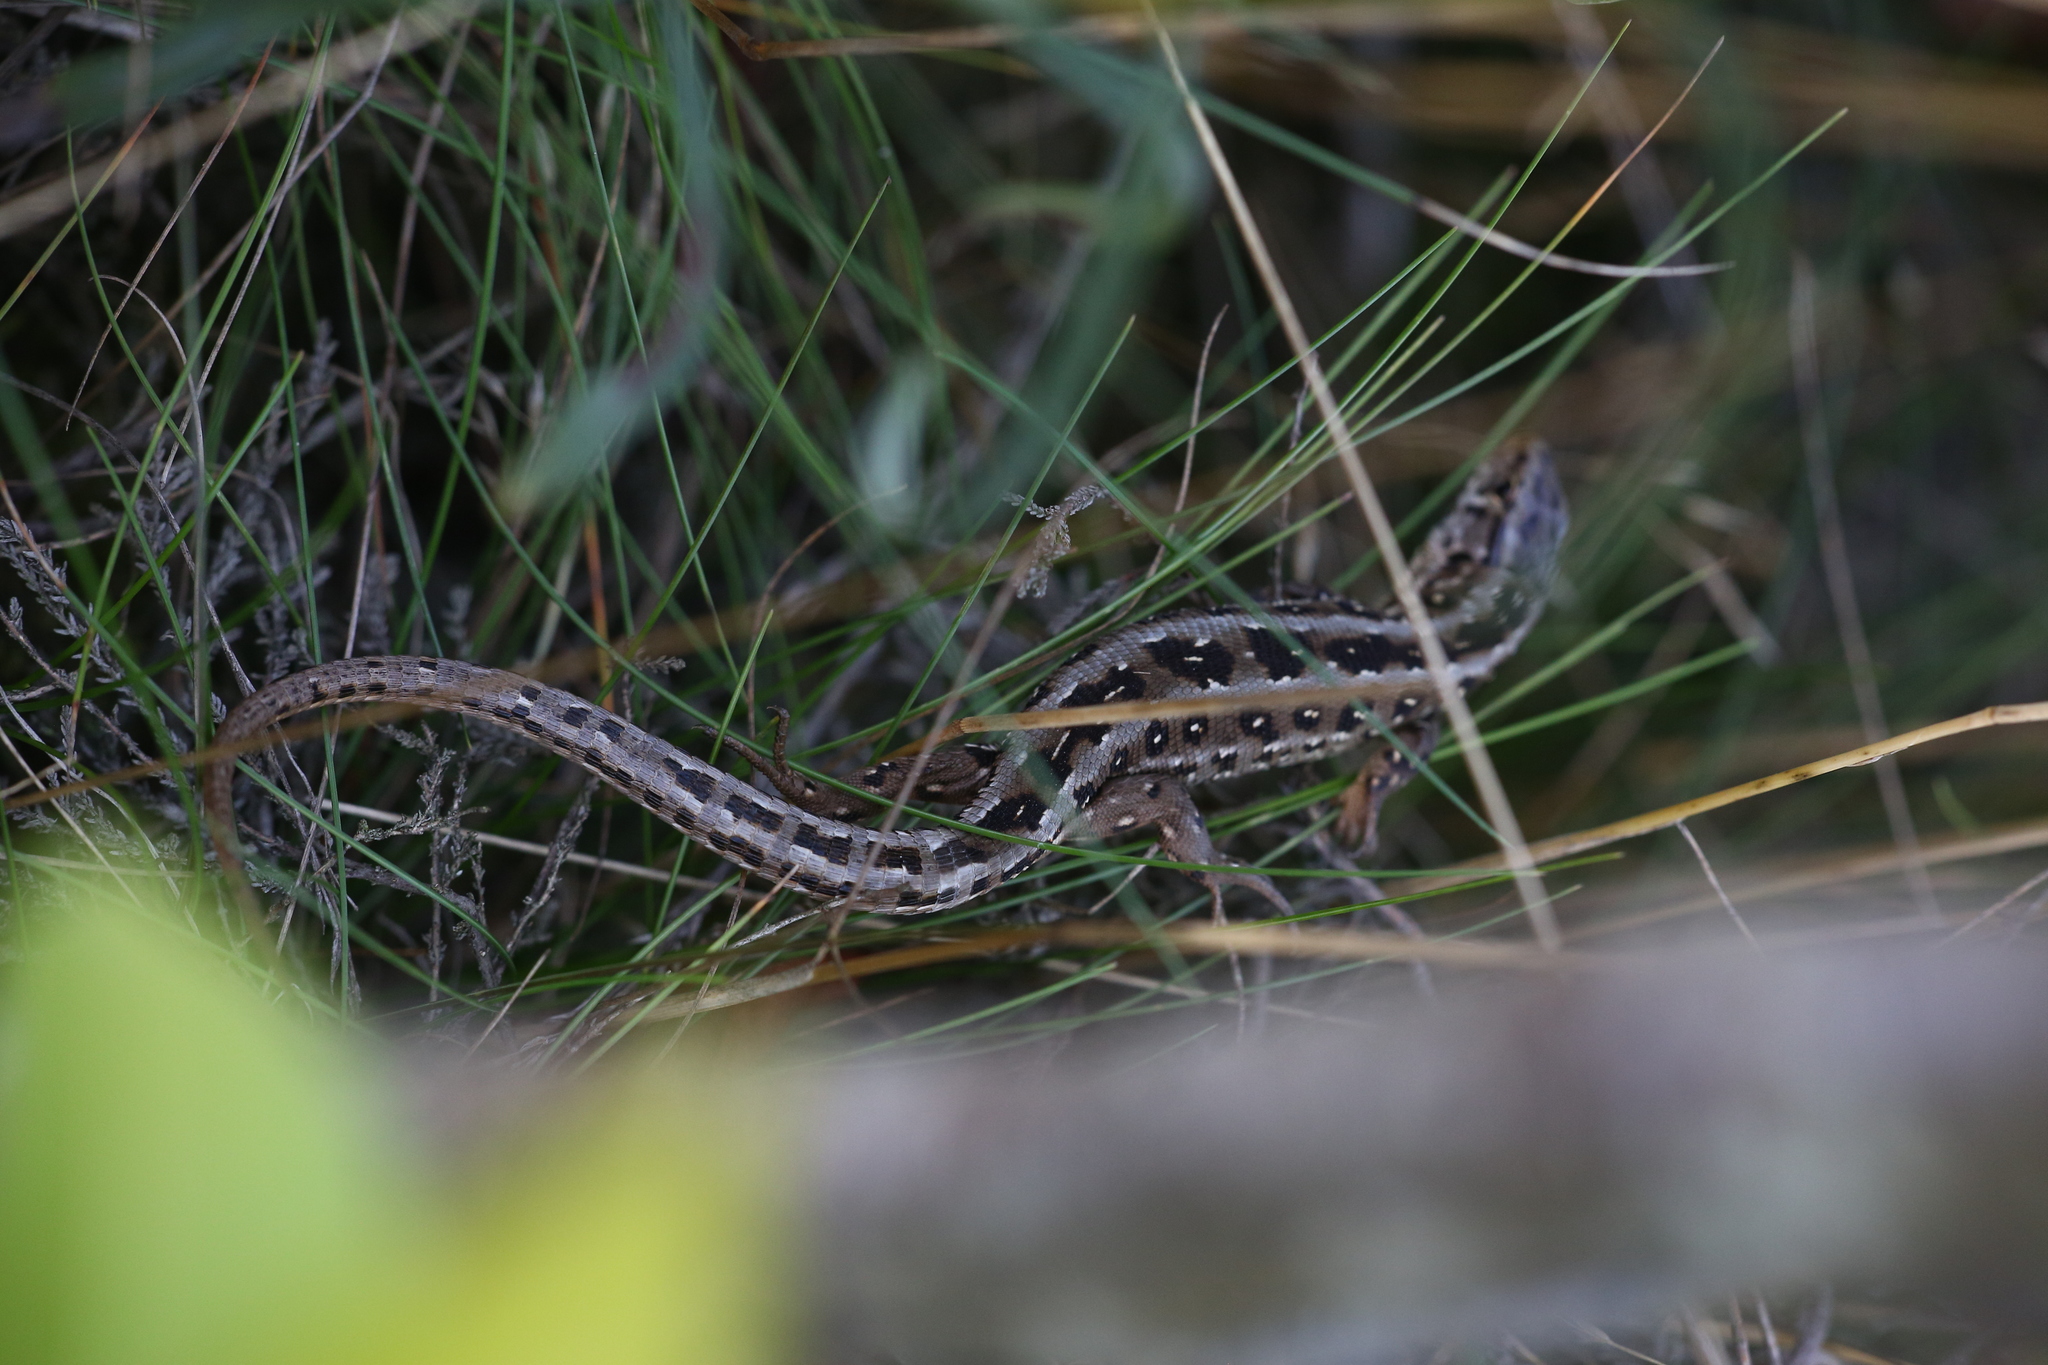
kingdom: Animalia
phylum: Chordata
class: Squamata
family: Lacertidae
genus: Lacerta
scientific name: Lacerta agilis
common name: Sand lizard
